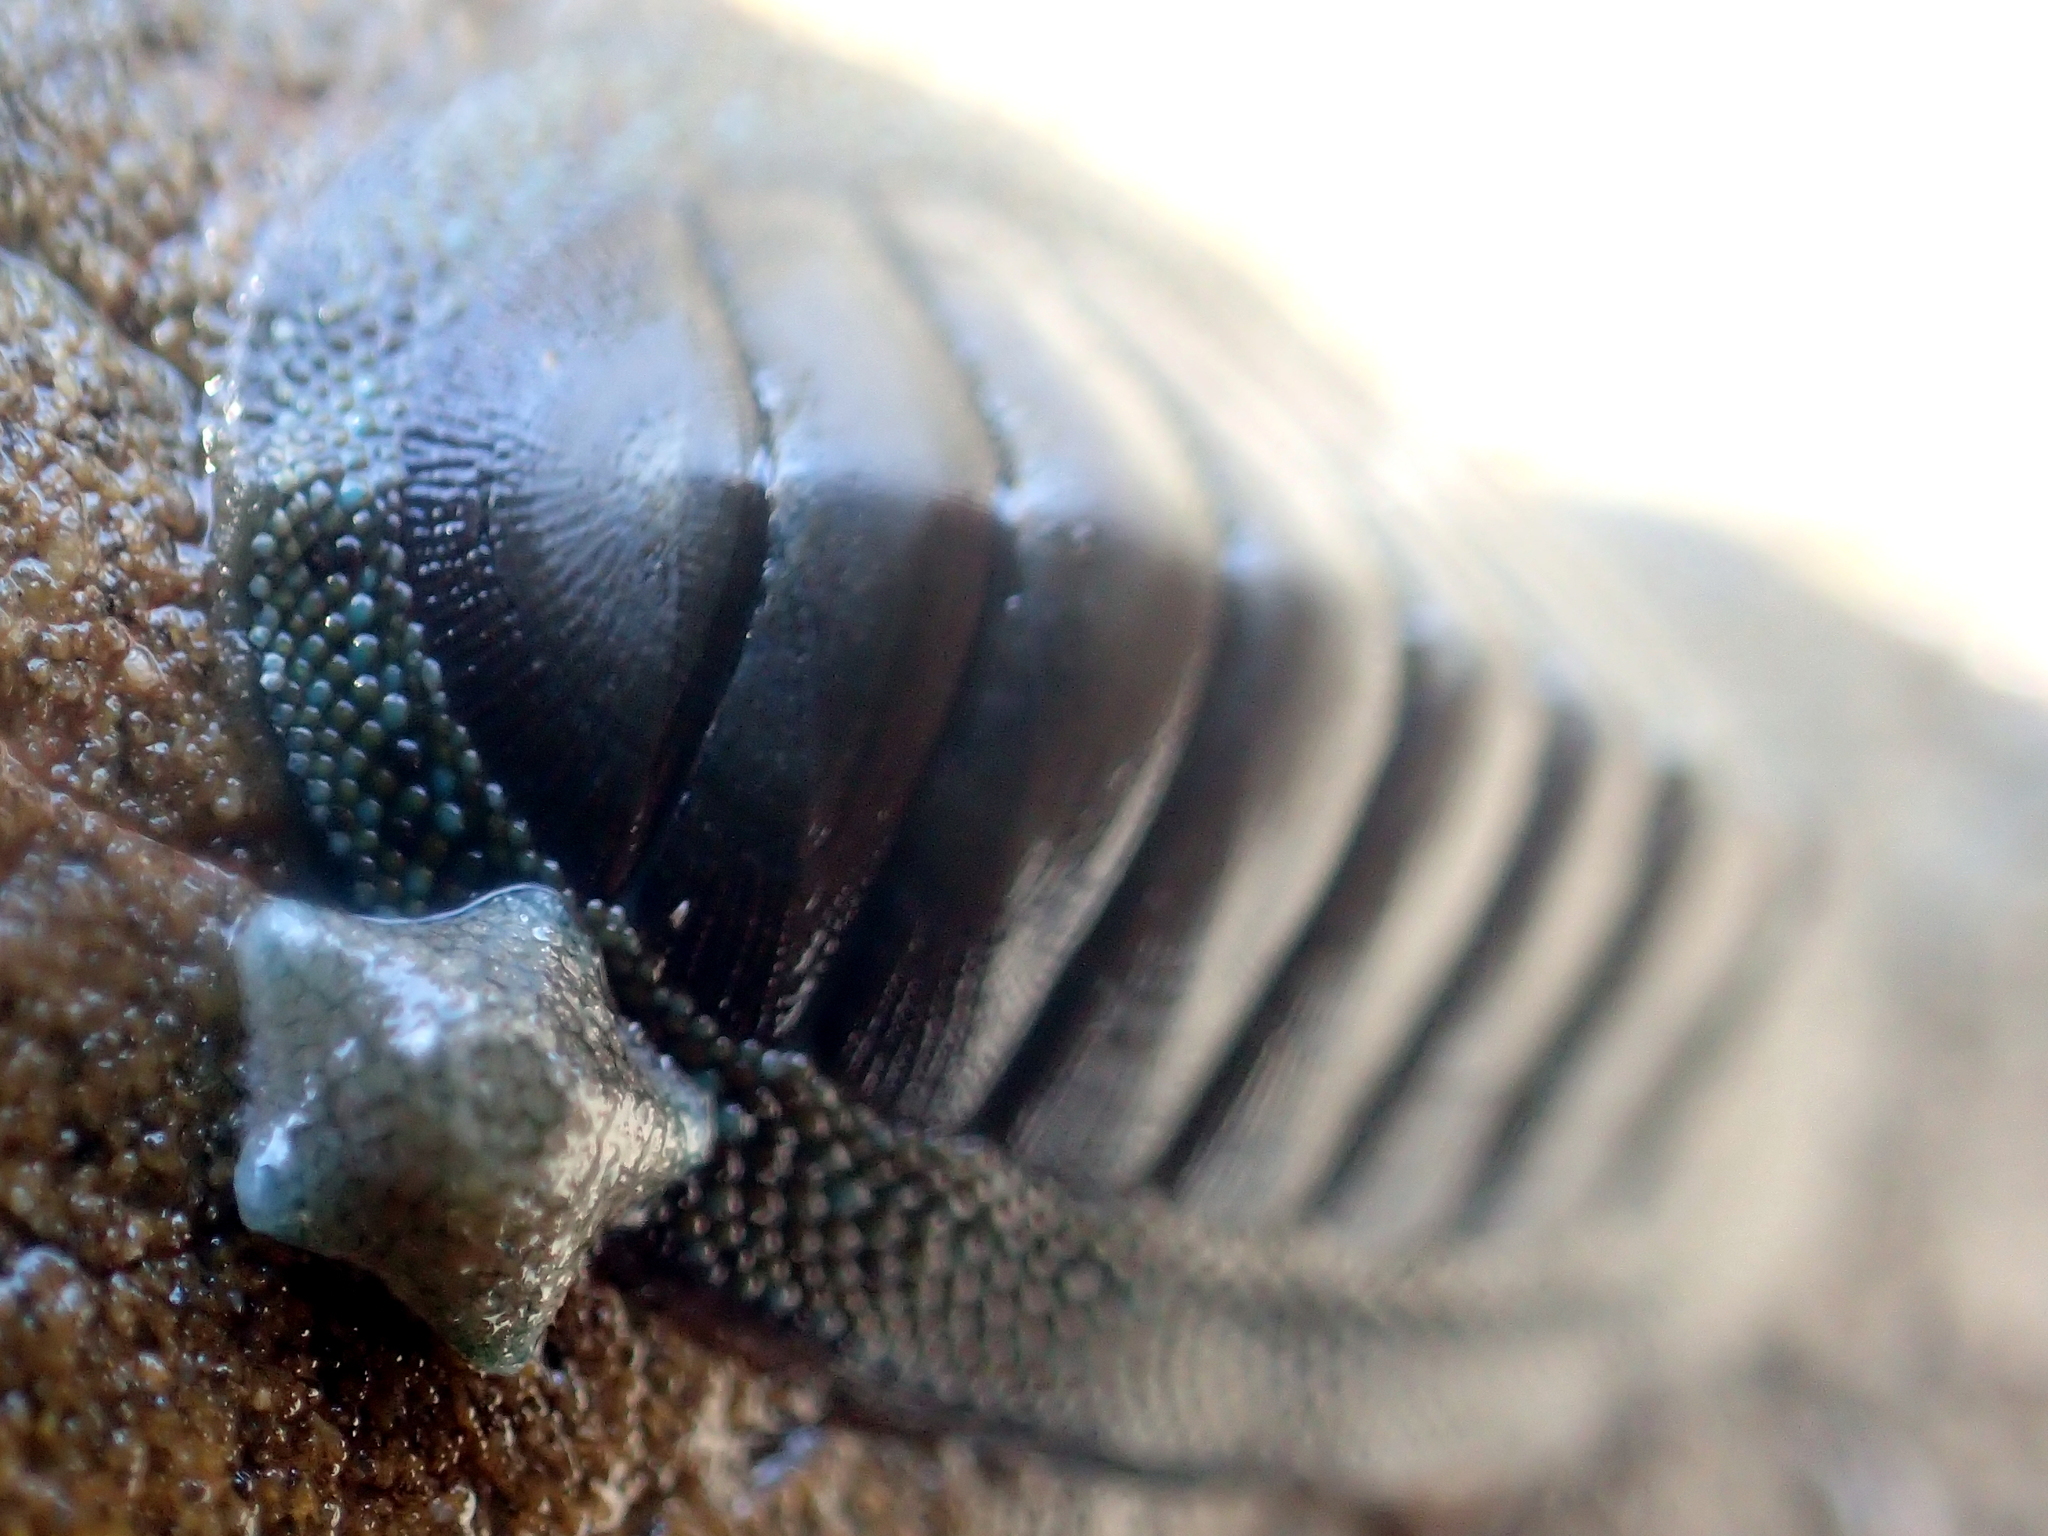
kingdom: Animalia
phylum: Mollusca
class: Polyplacophora
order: Chitonida
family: Chitonidae
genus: Chiton
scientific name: Chiton glaucus
